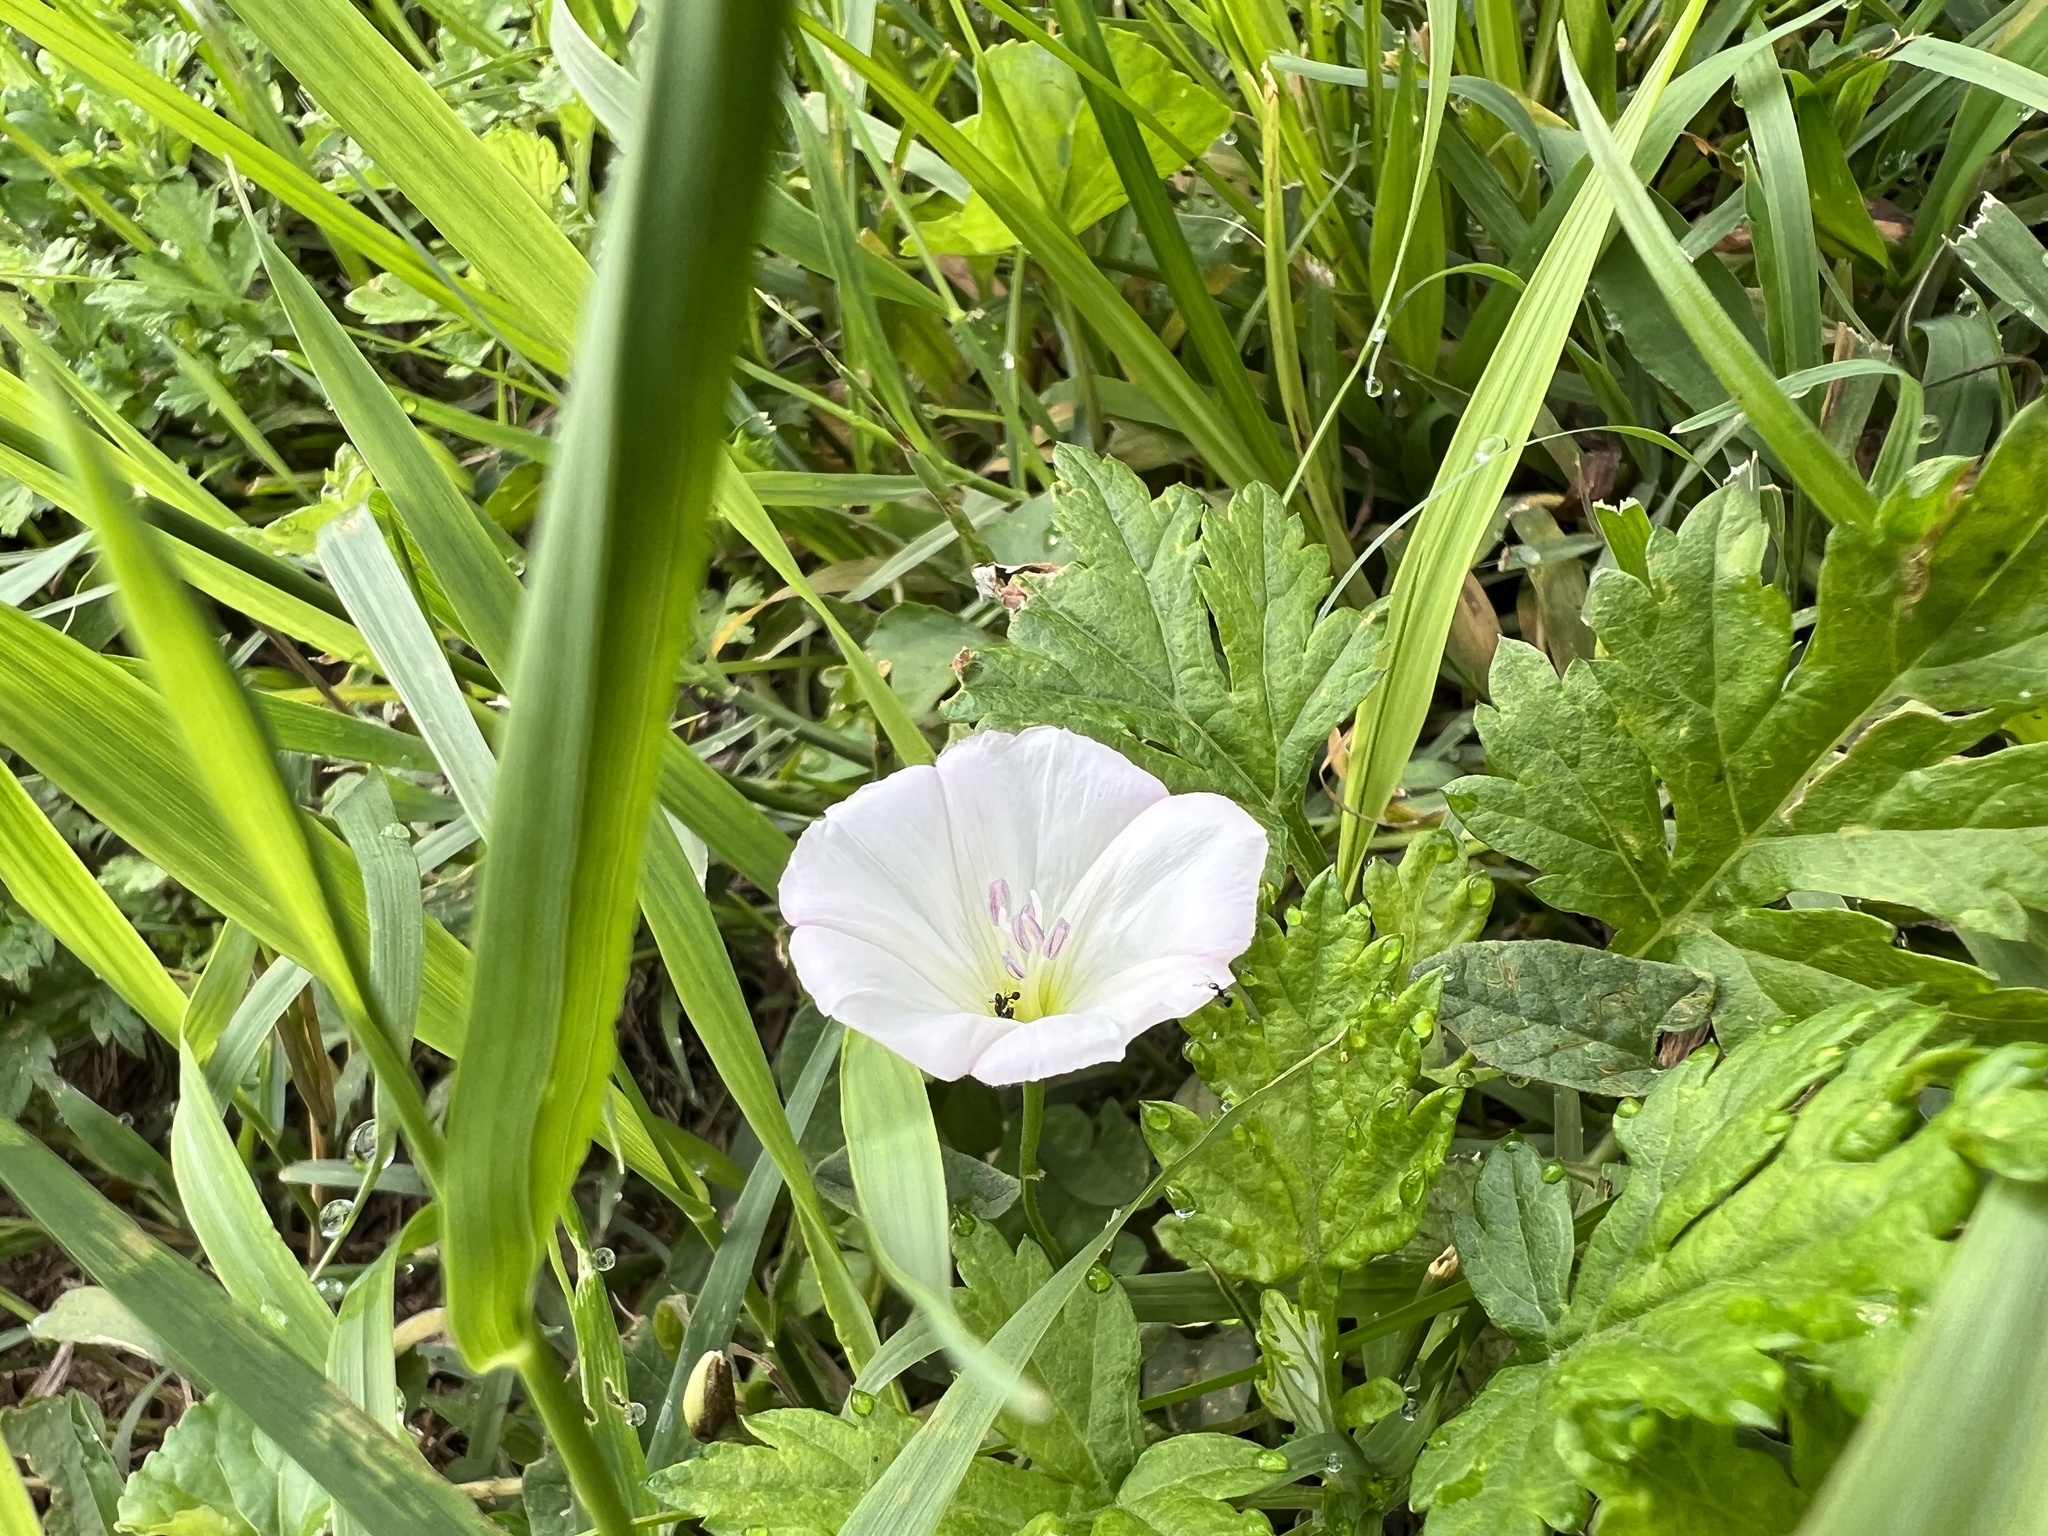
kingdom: Plantae
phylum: Tracheophyta
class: Magnoliopsida
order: Solanales
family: Convolvulaceae
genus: Convolvulus
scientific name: Convolvulus arvensis
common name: Field bindweed
